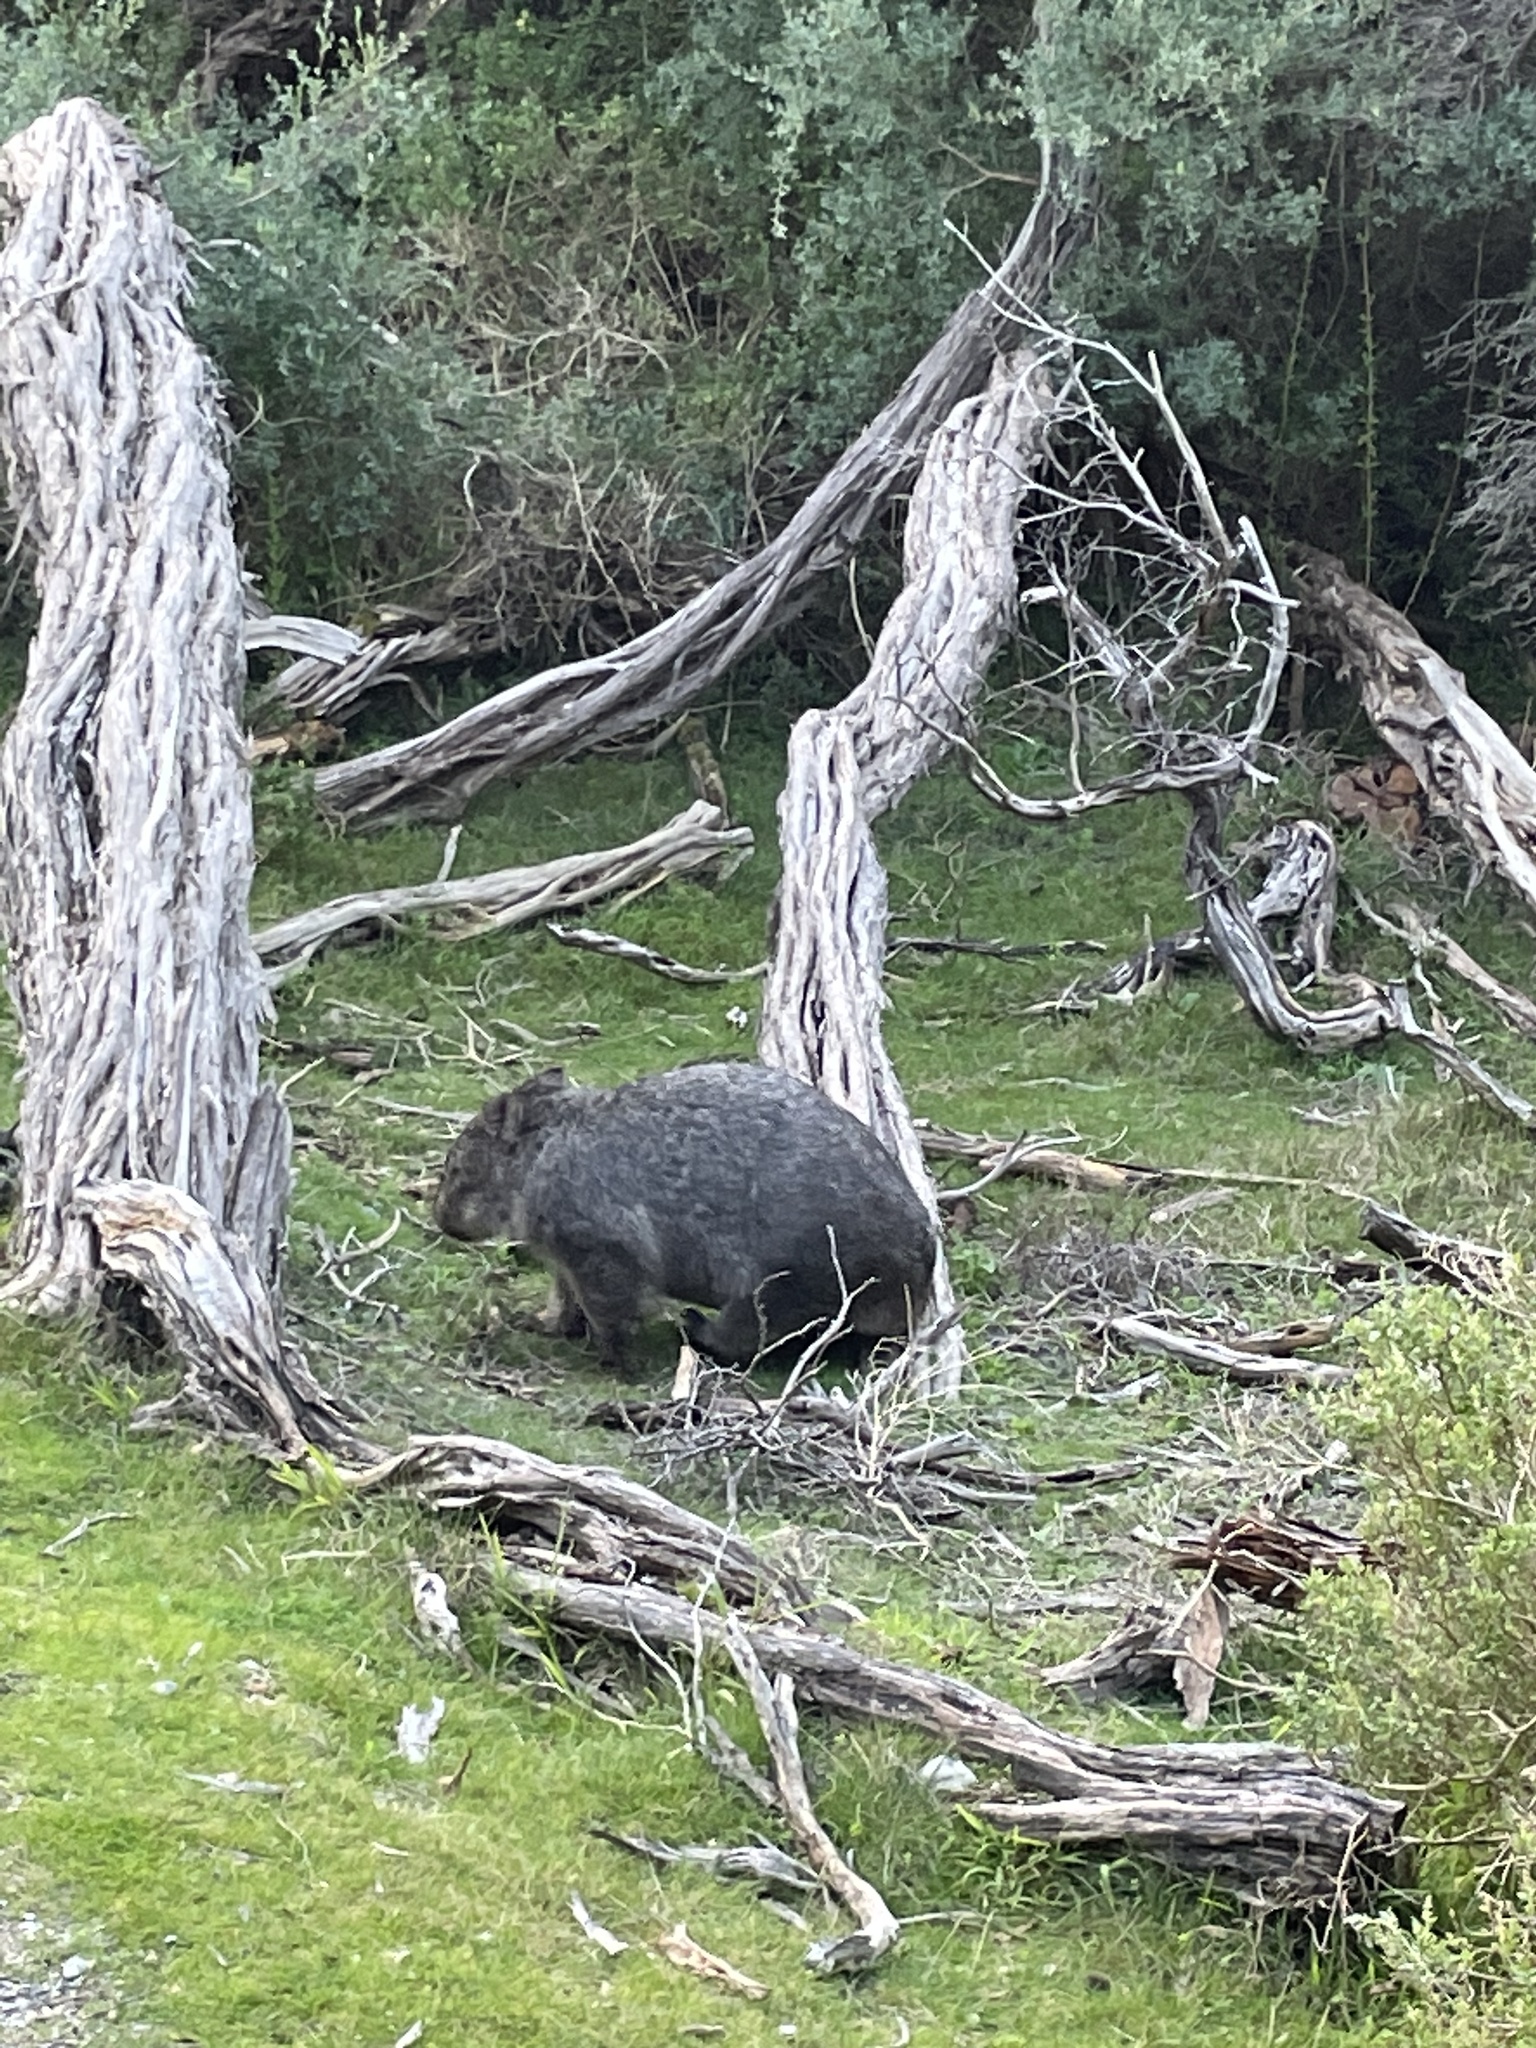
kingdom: Animalia
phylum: Chordata
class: Mammalia
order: Diprotodontia
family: Vombatidae
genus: Vombatus
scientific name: Vombatus ursinus
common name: Common wombat
